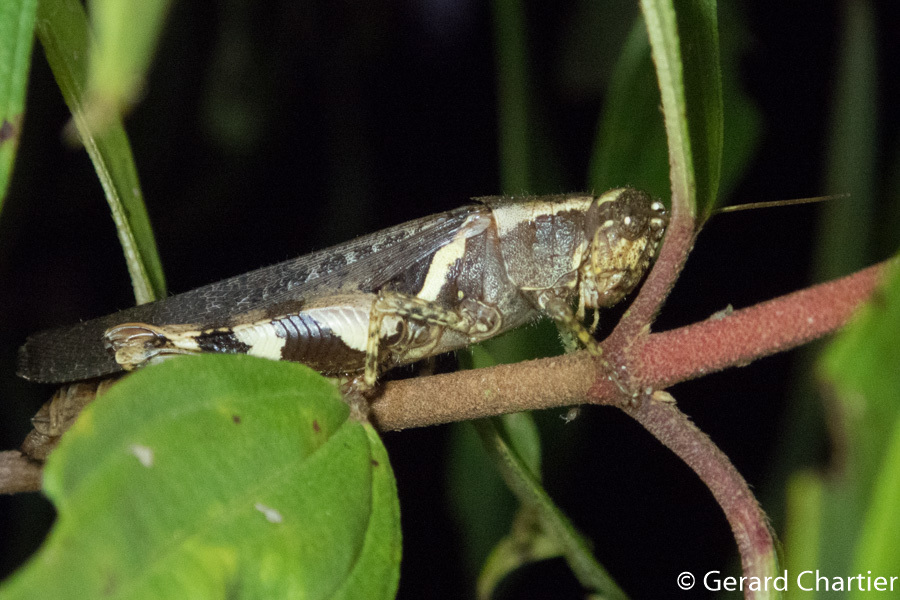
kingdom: Animalia
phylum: Arthropoda
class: Insecta
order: Orthoptera
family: Acrididae
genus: Xenocatantops
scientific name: Xenocatantops humile
